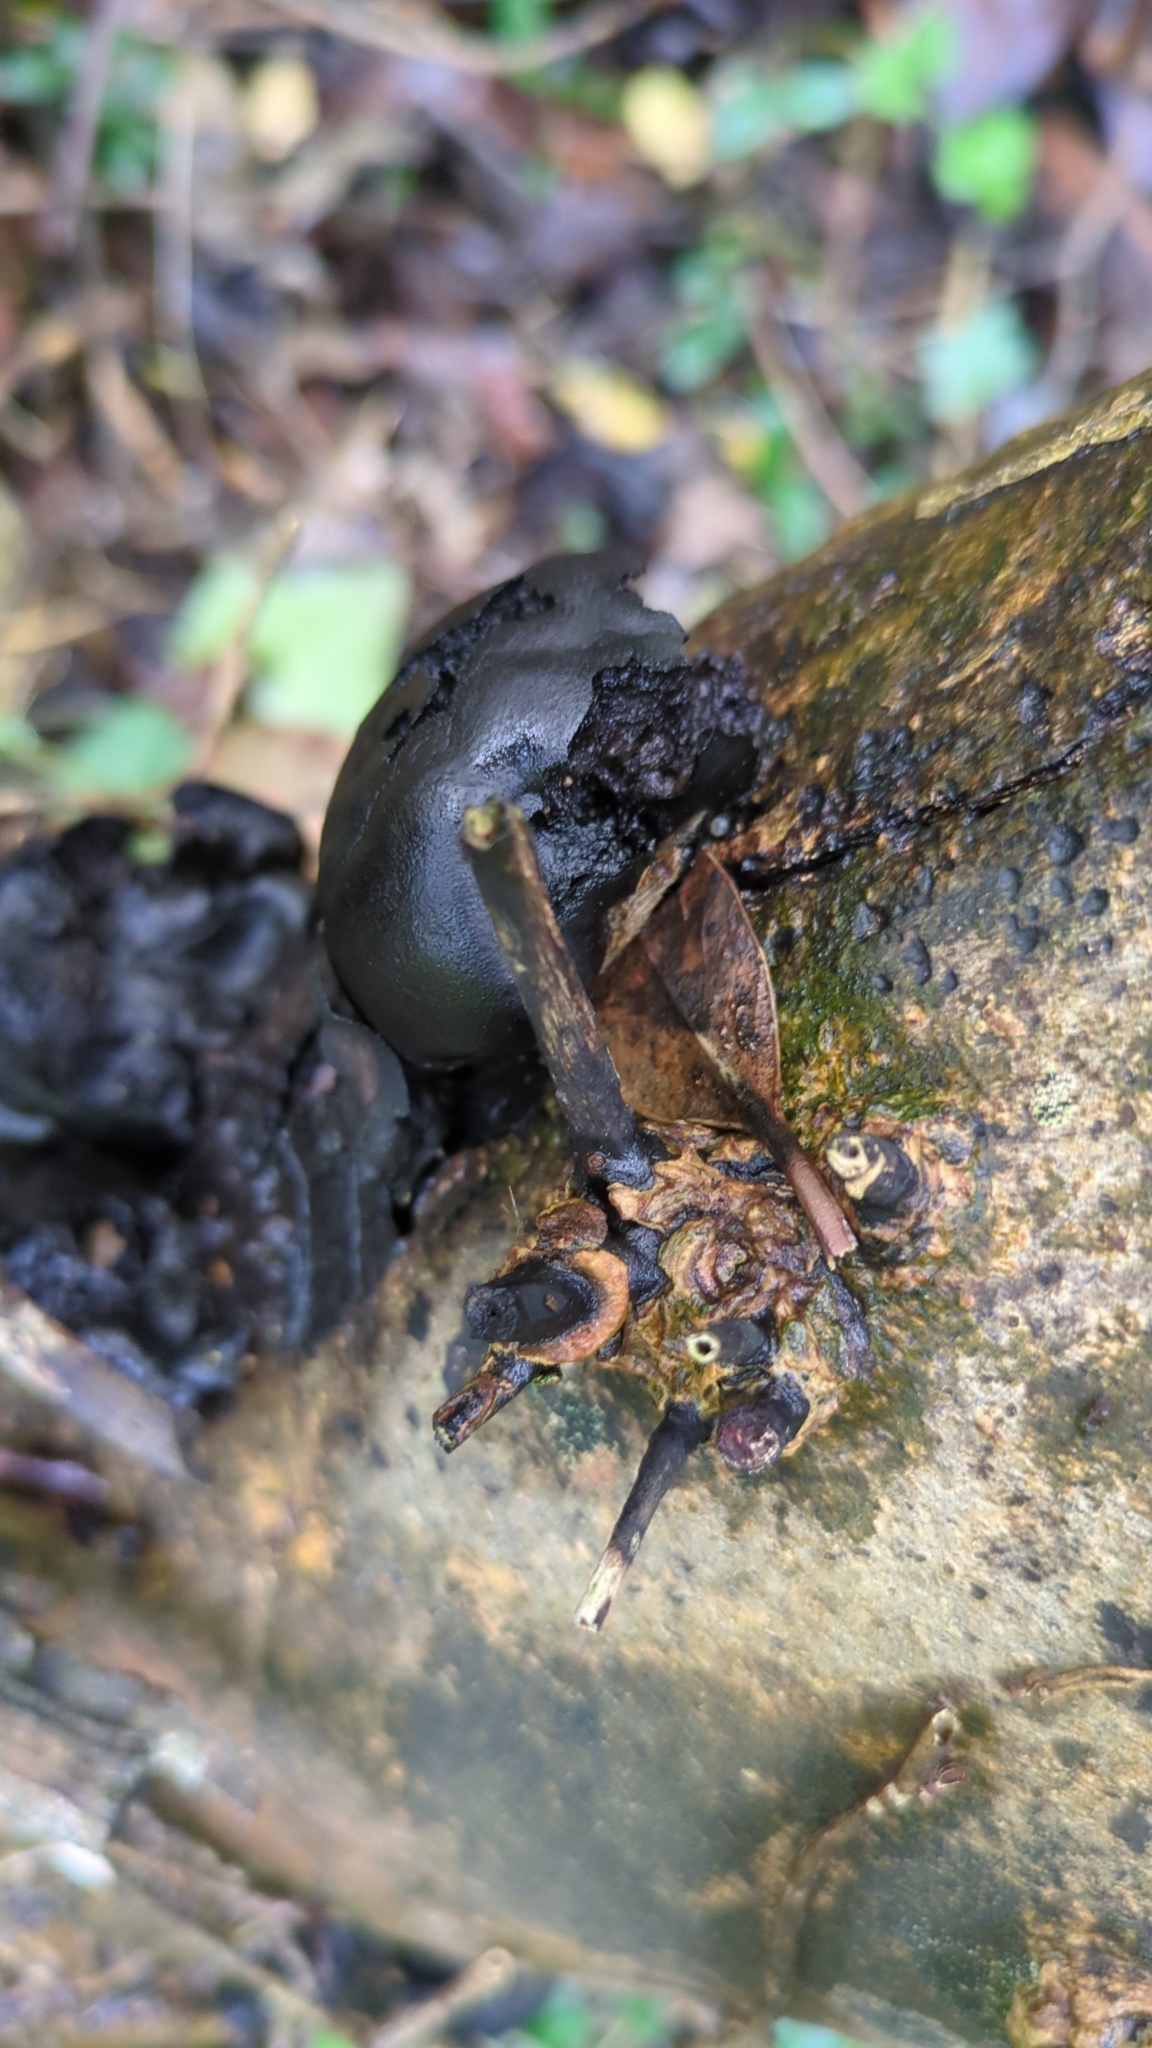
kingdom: Fungi
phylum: Ascomycota
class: Sordariomycetes
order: Xylariales
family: Hypoxylaceae
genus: Daldinia
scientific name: Daldinia concentrica
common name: Cramp balls
